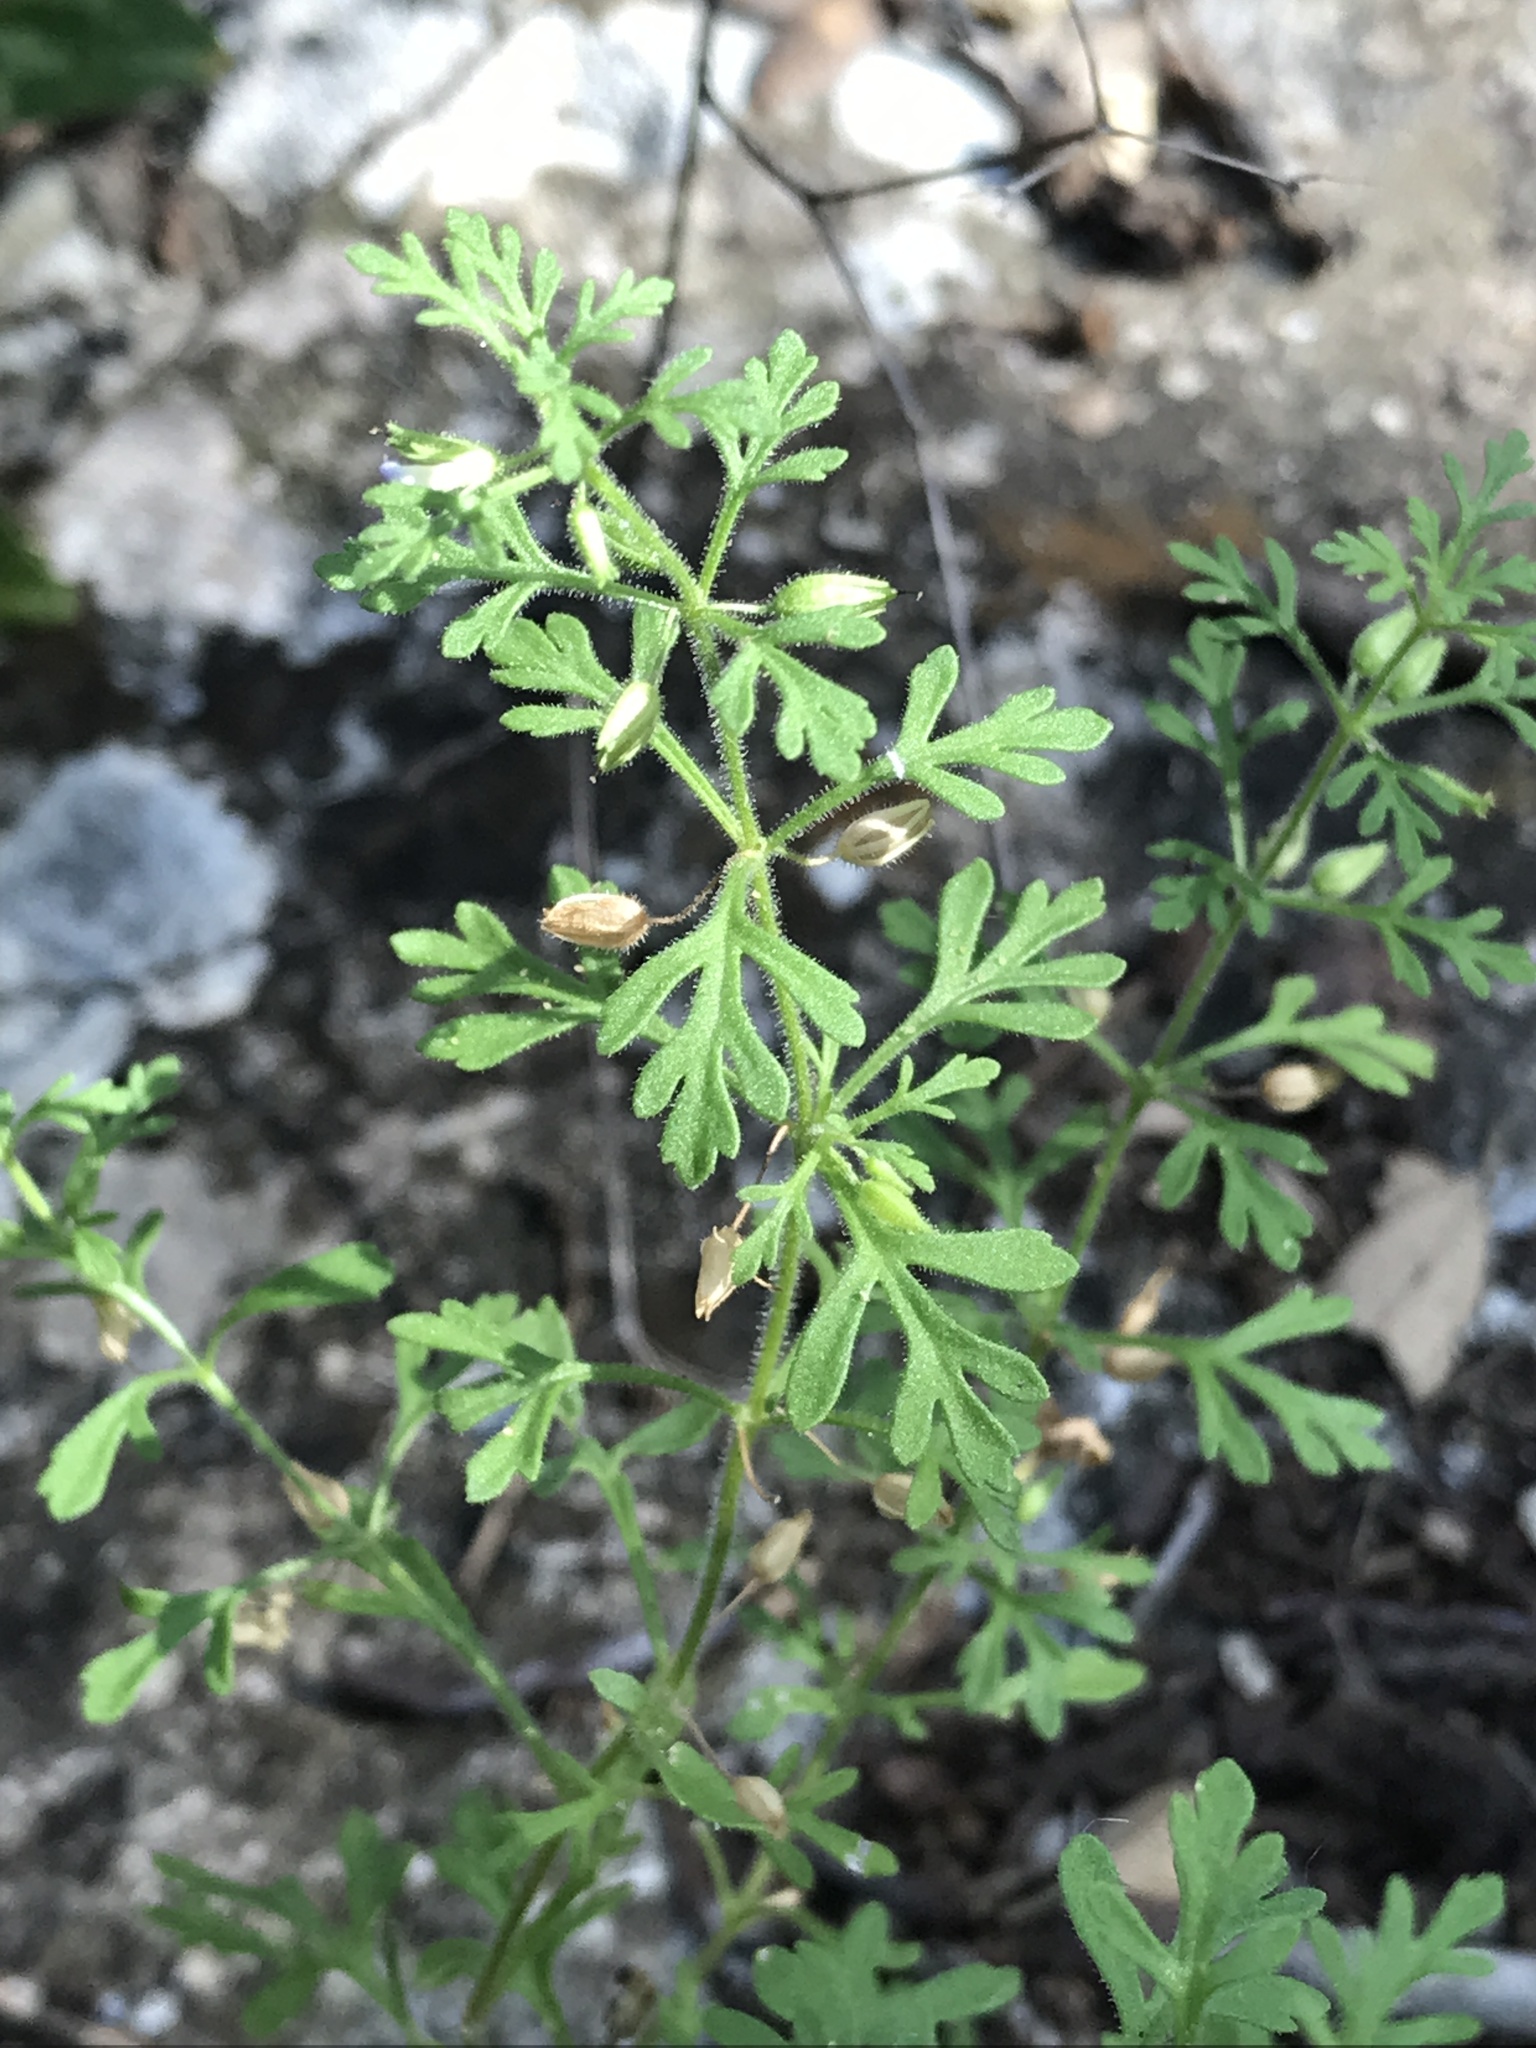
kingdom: Plantae
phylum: Tracheophyta
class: Magnoliopsida
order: Lamiales
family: Plantaginaceae
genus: Leucospora
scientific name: Leucospora multifida
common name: Narrow-leaf paleseed
